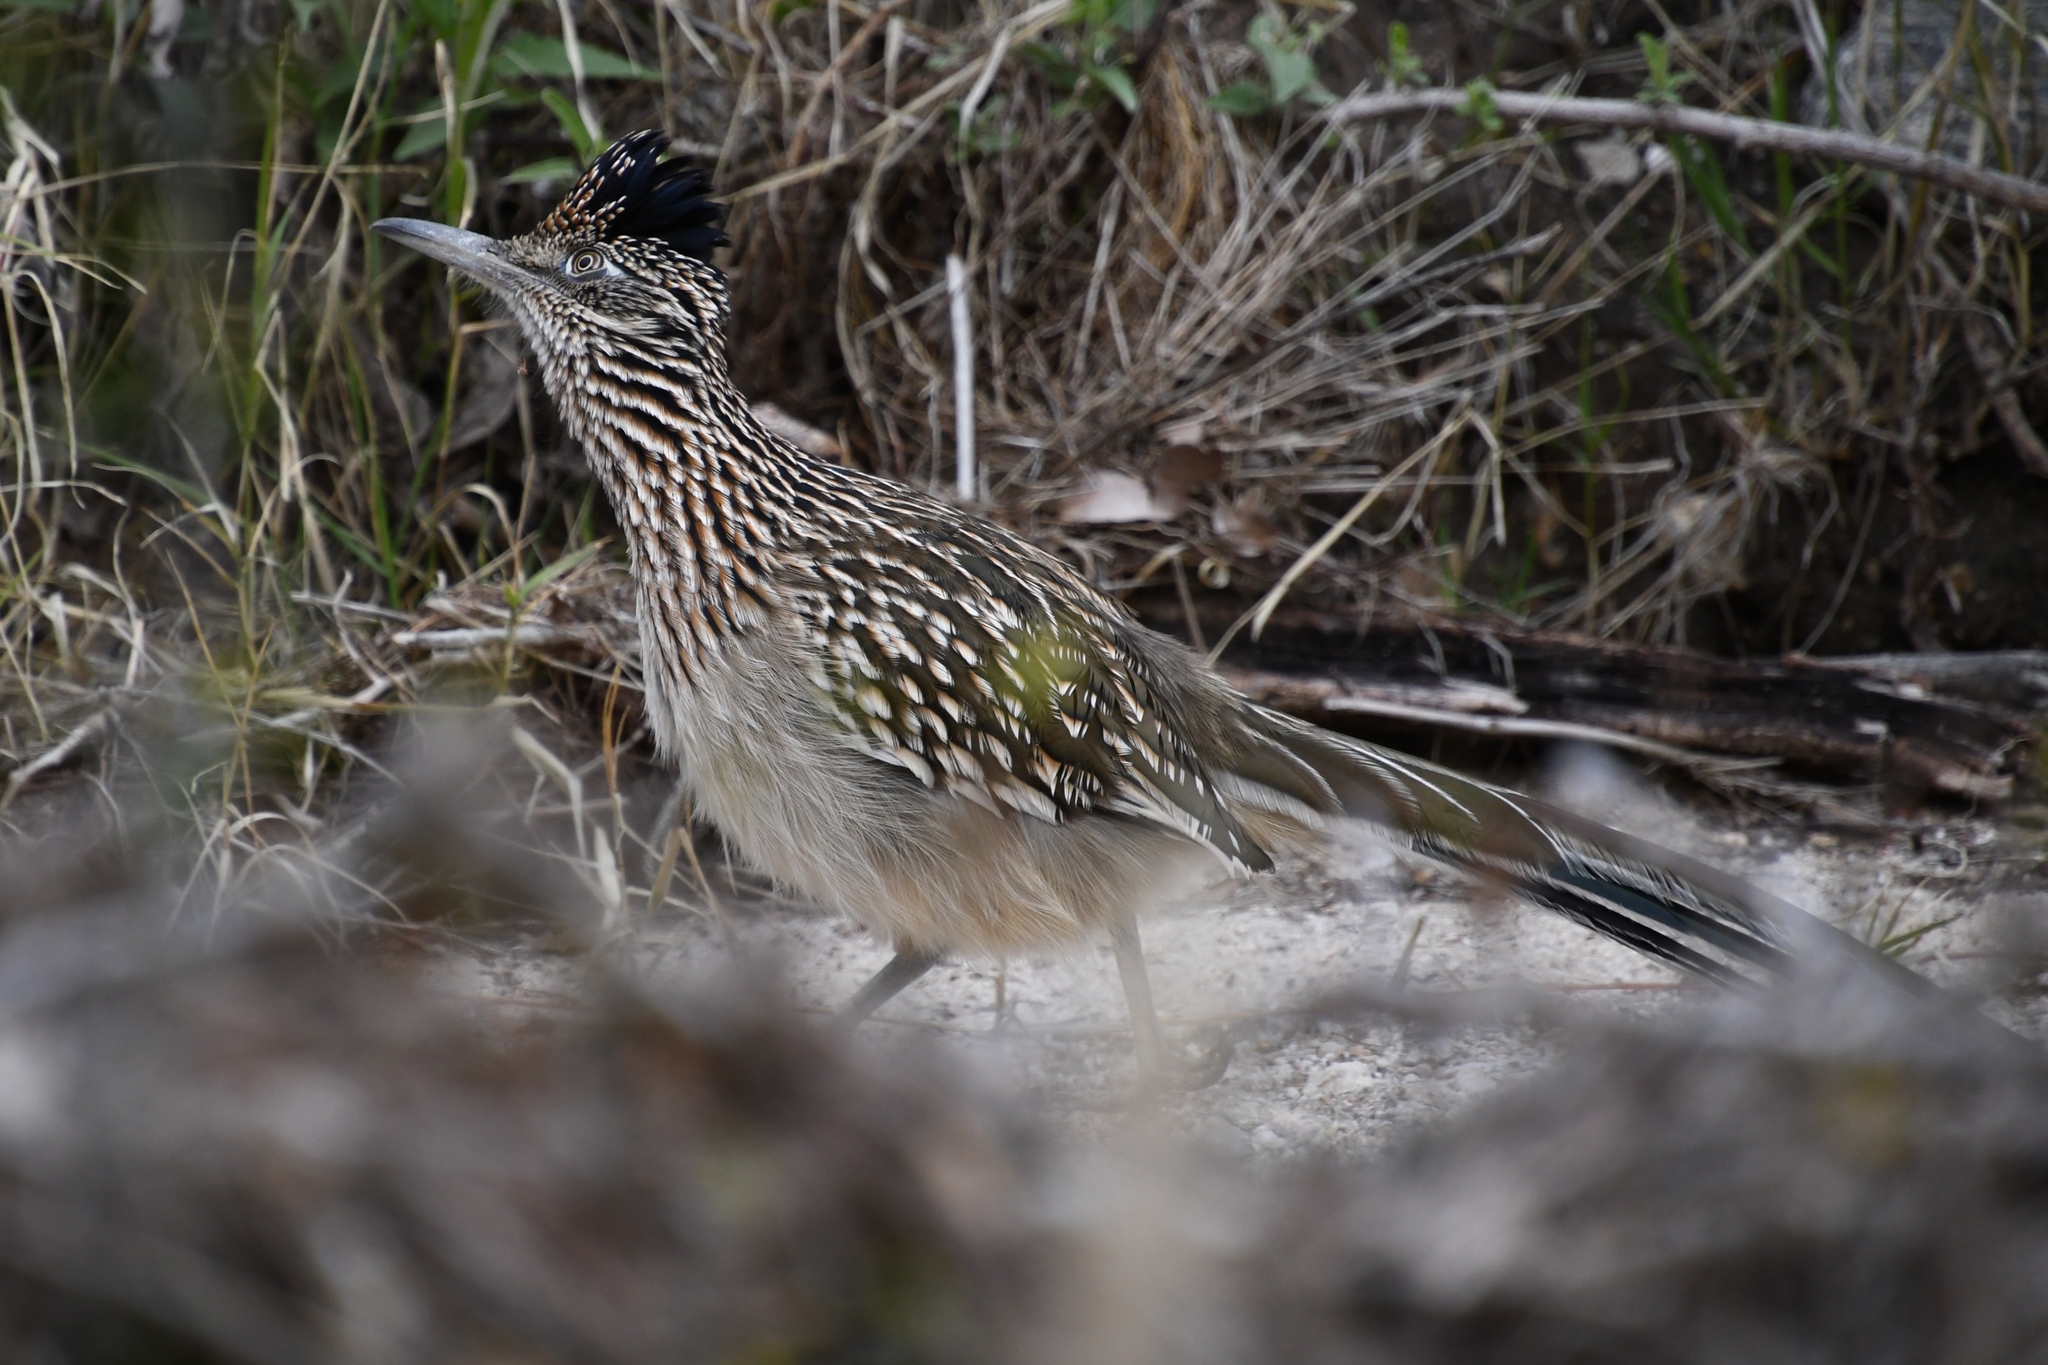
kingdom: Animalia
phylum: Chordata
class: Aves
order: Cuculiformes
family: Cuculidae
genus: Geococcyx
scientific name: Geococcyx californianus
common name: Greater roadrunner
